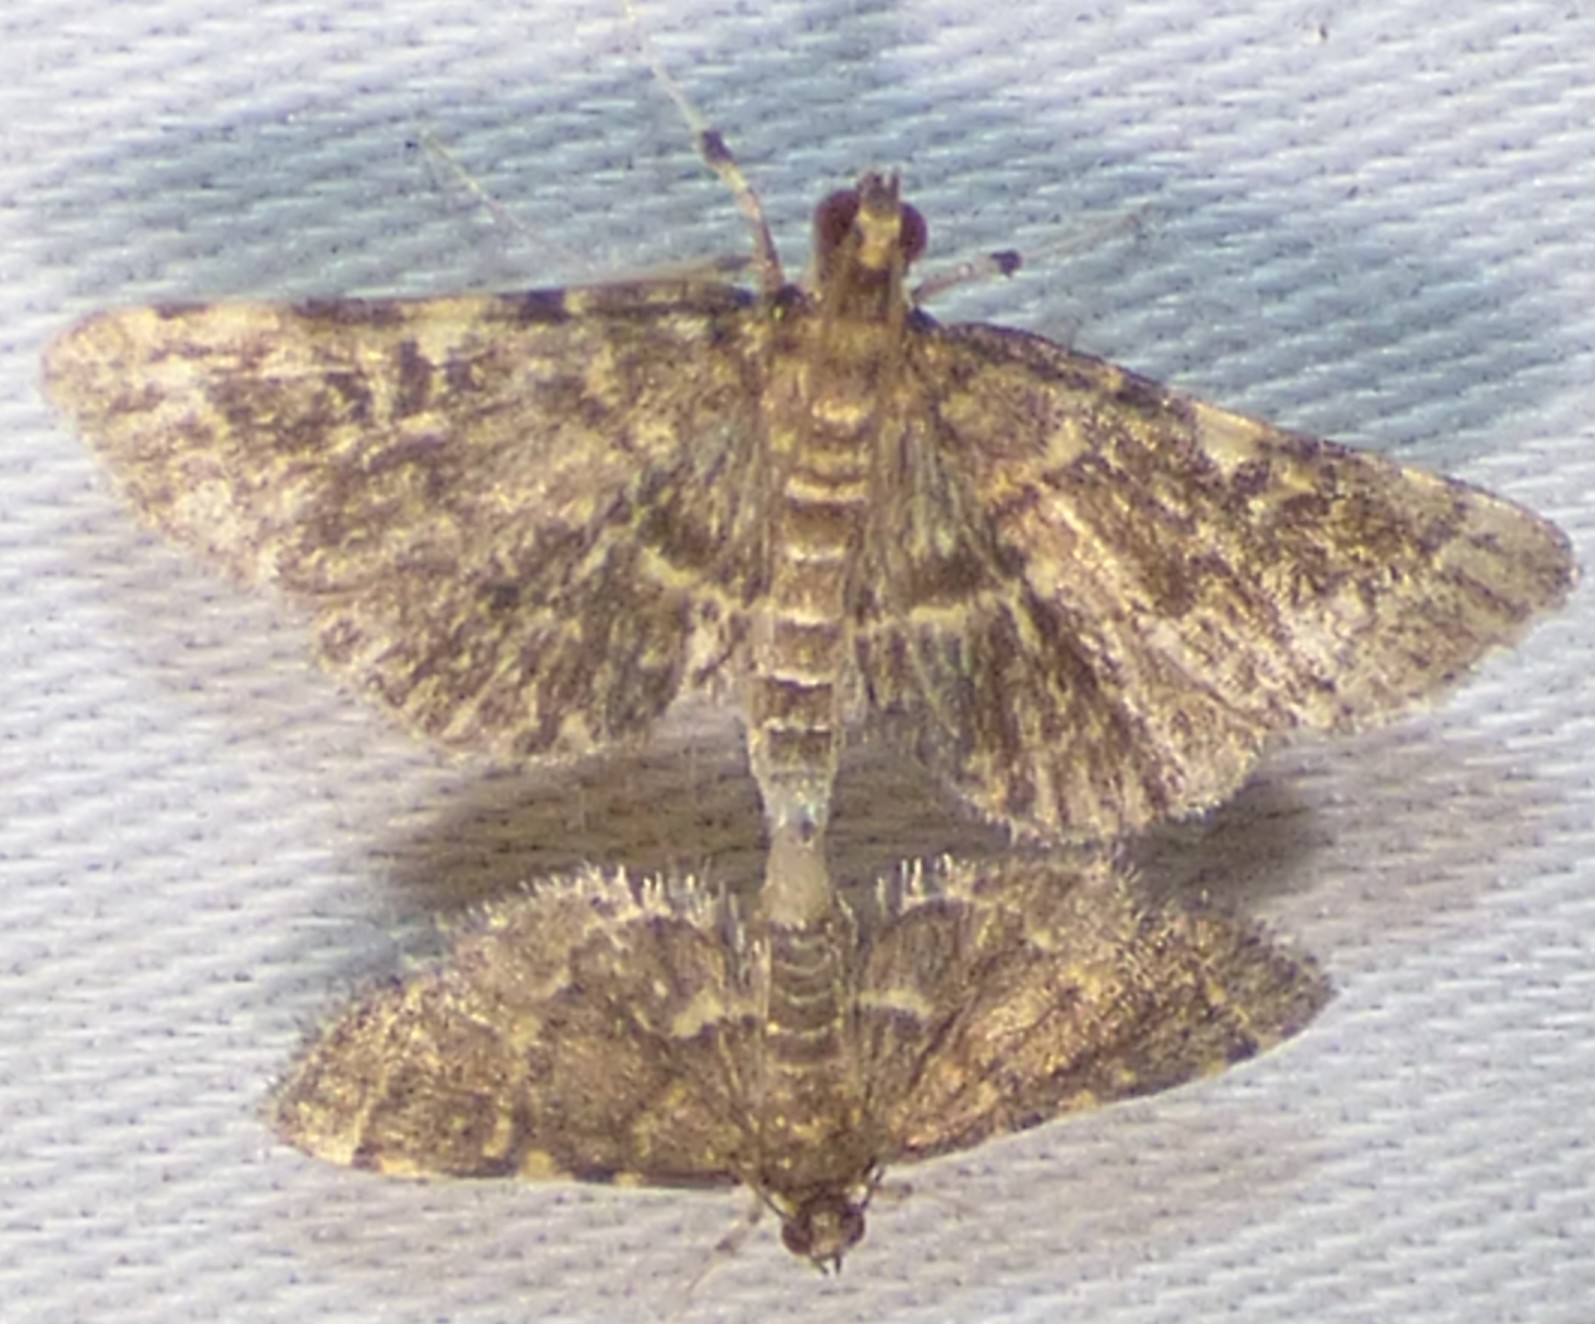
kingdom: Animalia
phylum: Arthropoda
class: Insecta
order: Lepidoptera
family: Crambidae
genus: Anageshna
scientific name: Anageshna primordialis
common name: Yellow-spotted webworm moth
